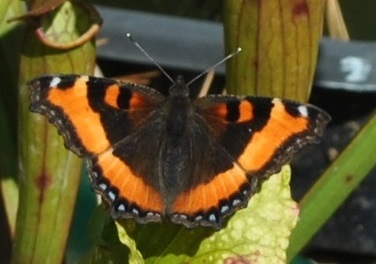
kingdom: Animalia
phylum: Arthropoda
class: Insecta
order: Lepidoptera
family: Nymphalidae
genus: Aglais
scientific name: Aglais milberti
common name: Milbert's tortoiseshell
